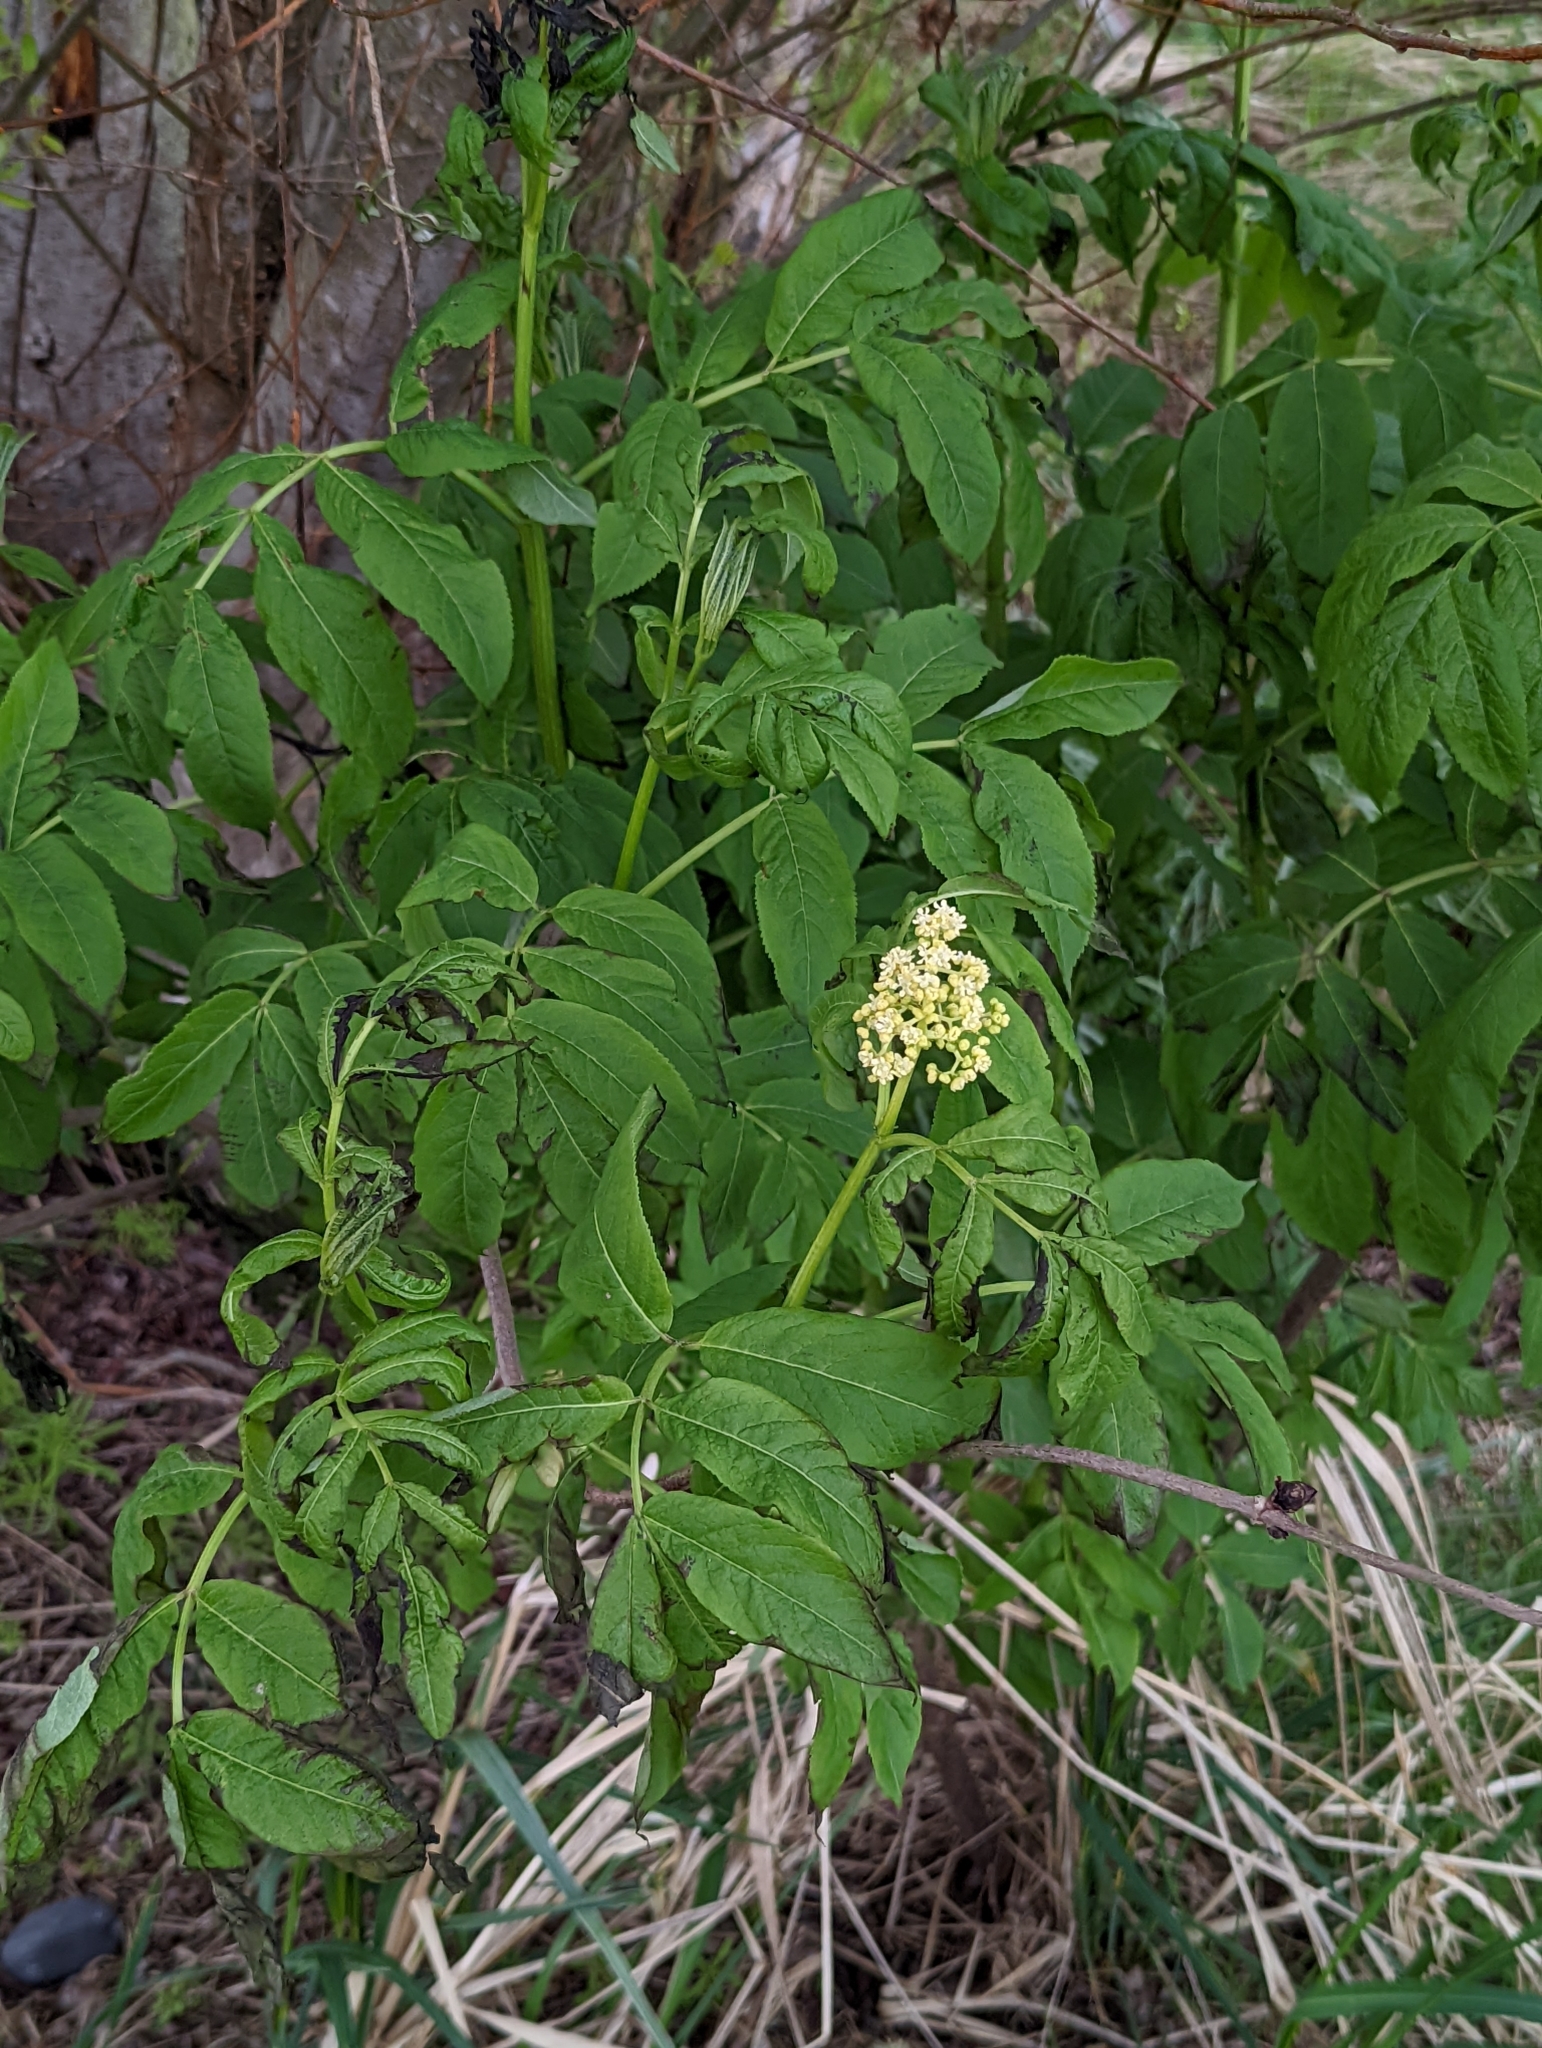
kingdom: Plantae
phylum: Tracheophyta
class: Magnoliopsida
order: Dipsacales
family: Viburnaceae
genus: Sambucus
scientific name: Sambucus racemosa
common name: Red-berried elder
